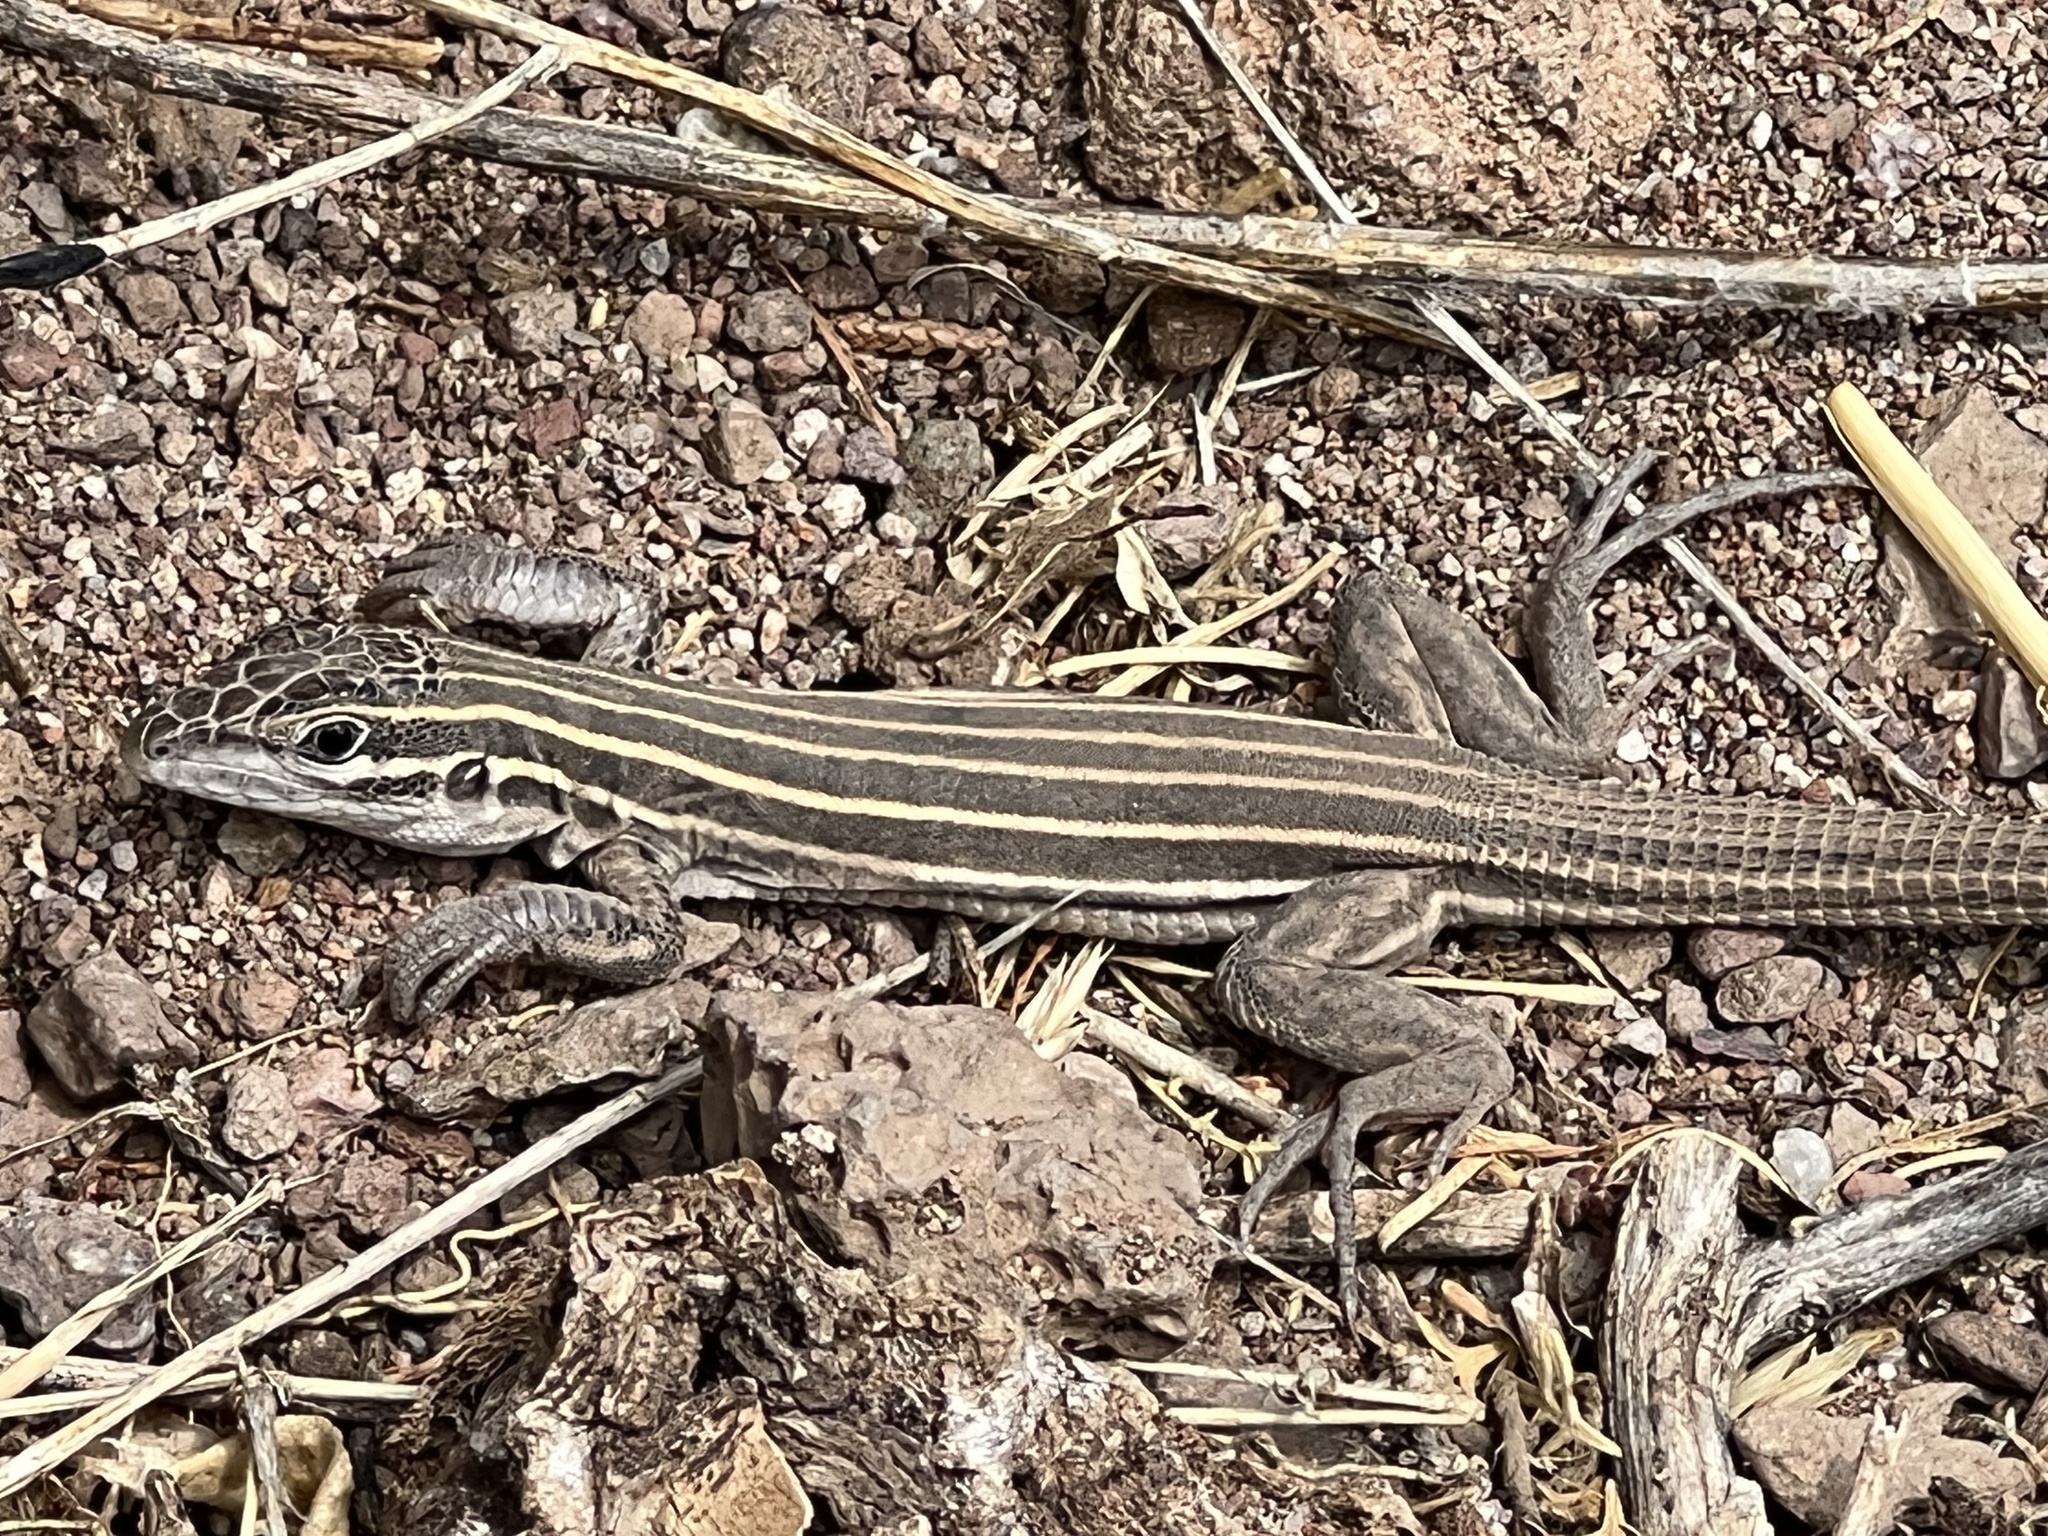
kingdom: Animalia
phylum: Chordata
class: Squamata
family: Teiidae
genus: Aspidoscelis
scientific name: Aspidoscelis velox
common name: Plateau striped whiptail
